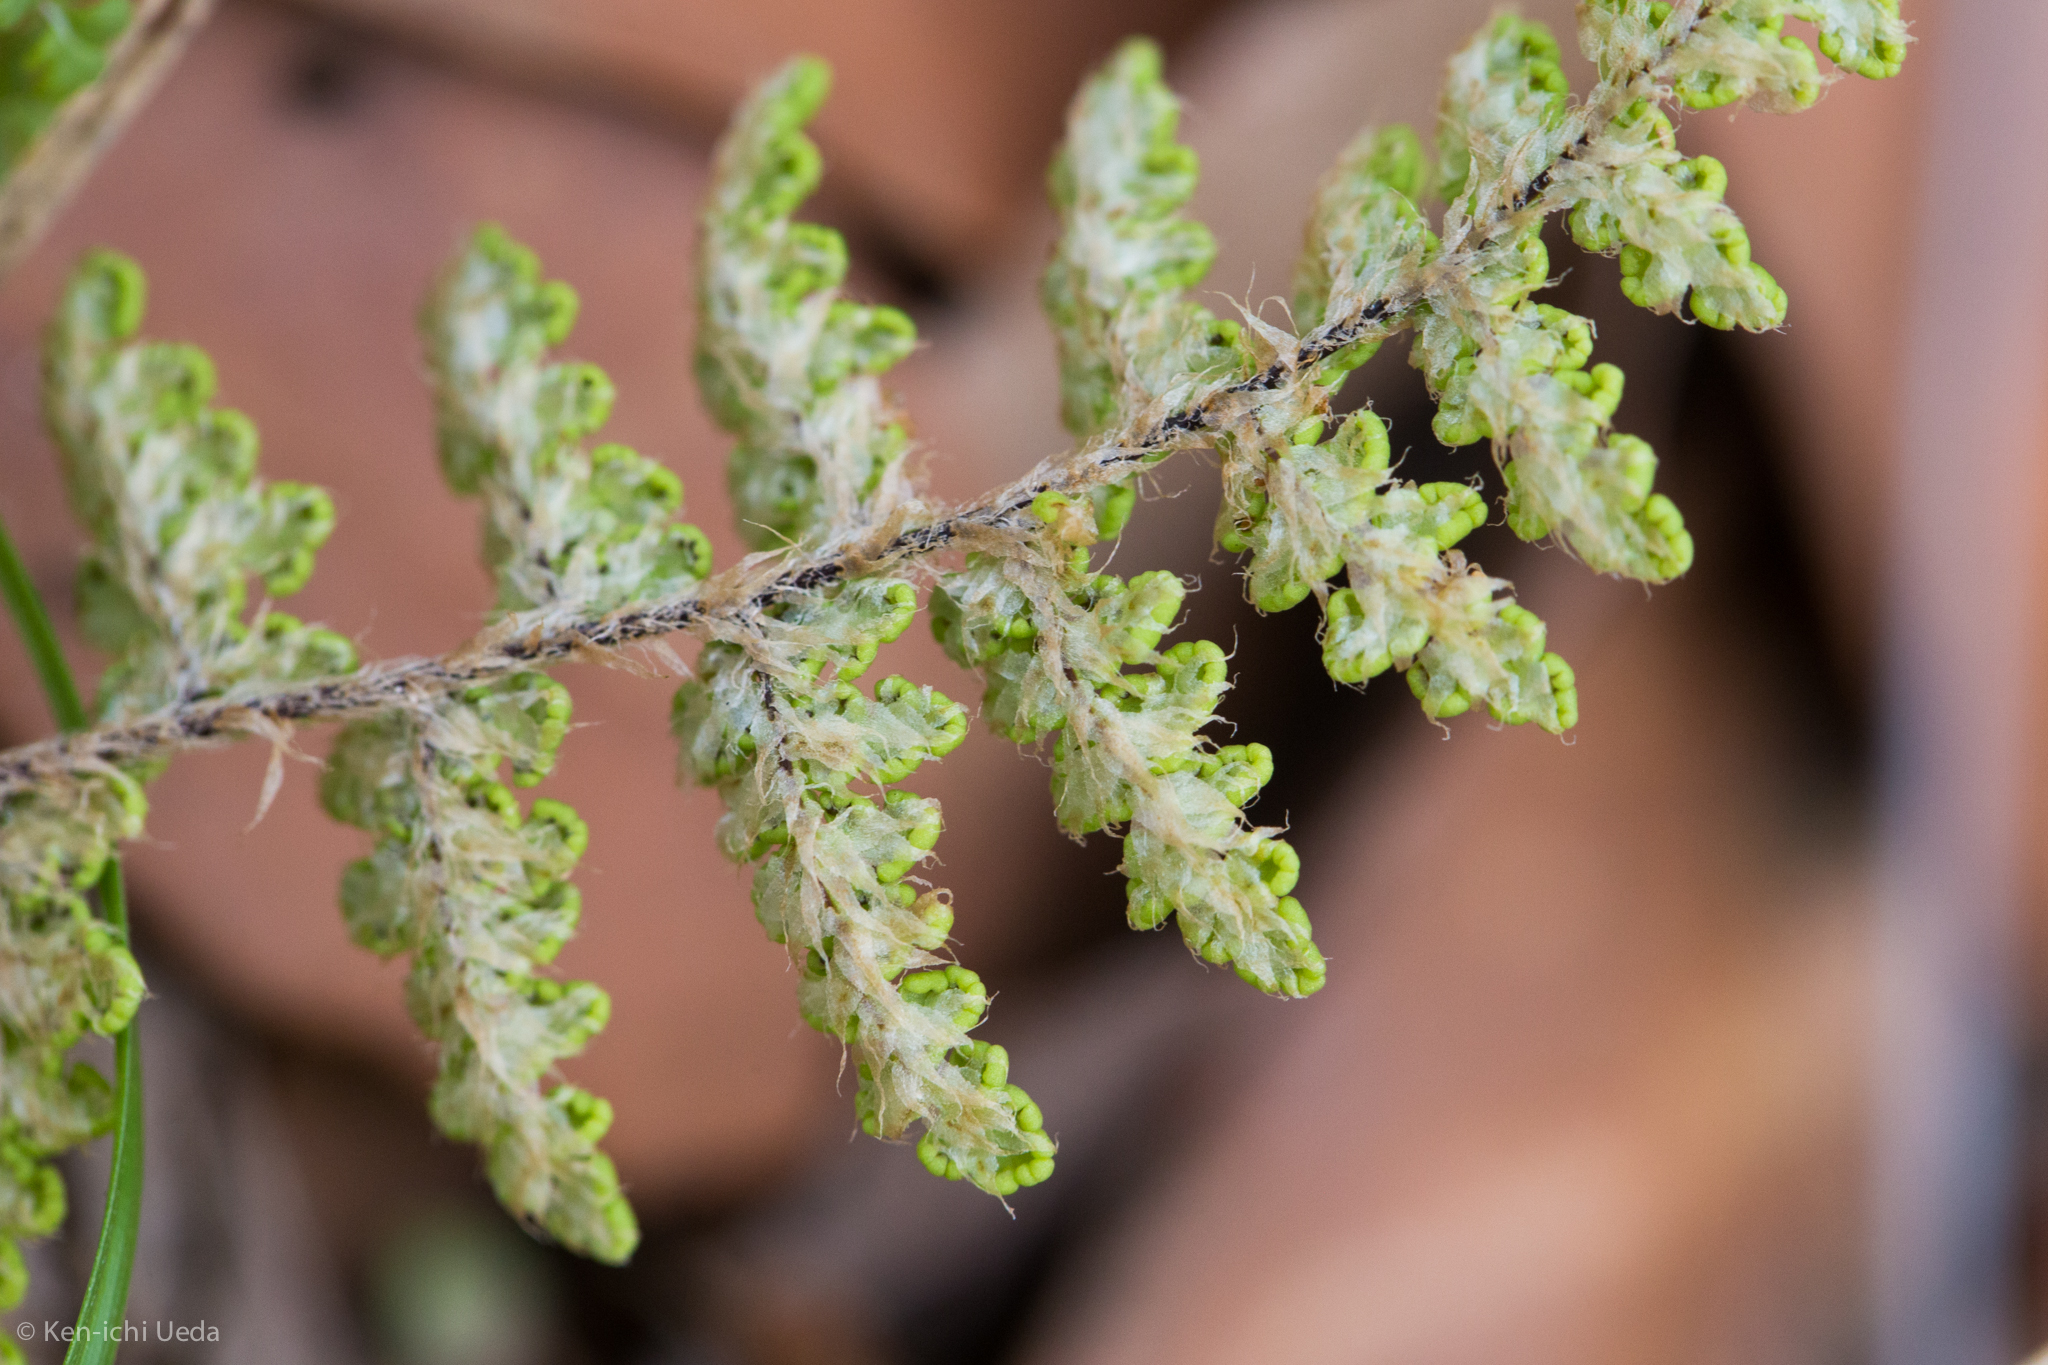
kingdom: Plantae
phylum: Tracheophyta
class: Polypodiopsida
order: Polypodiales
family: Pteridaceae
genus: Myriopteris
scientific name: Myriopteris fendleri
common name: Fendler's lip fern
